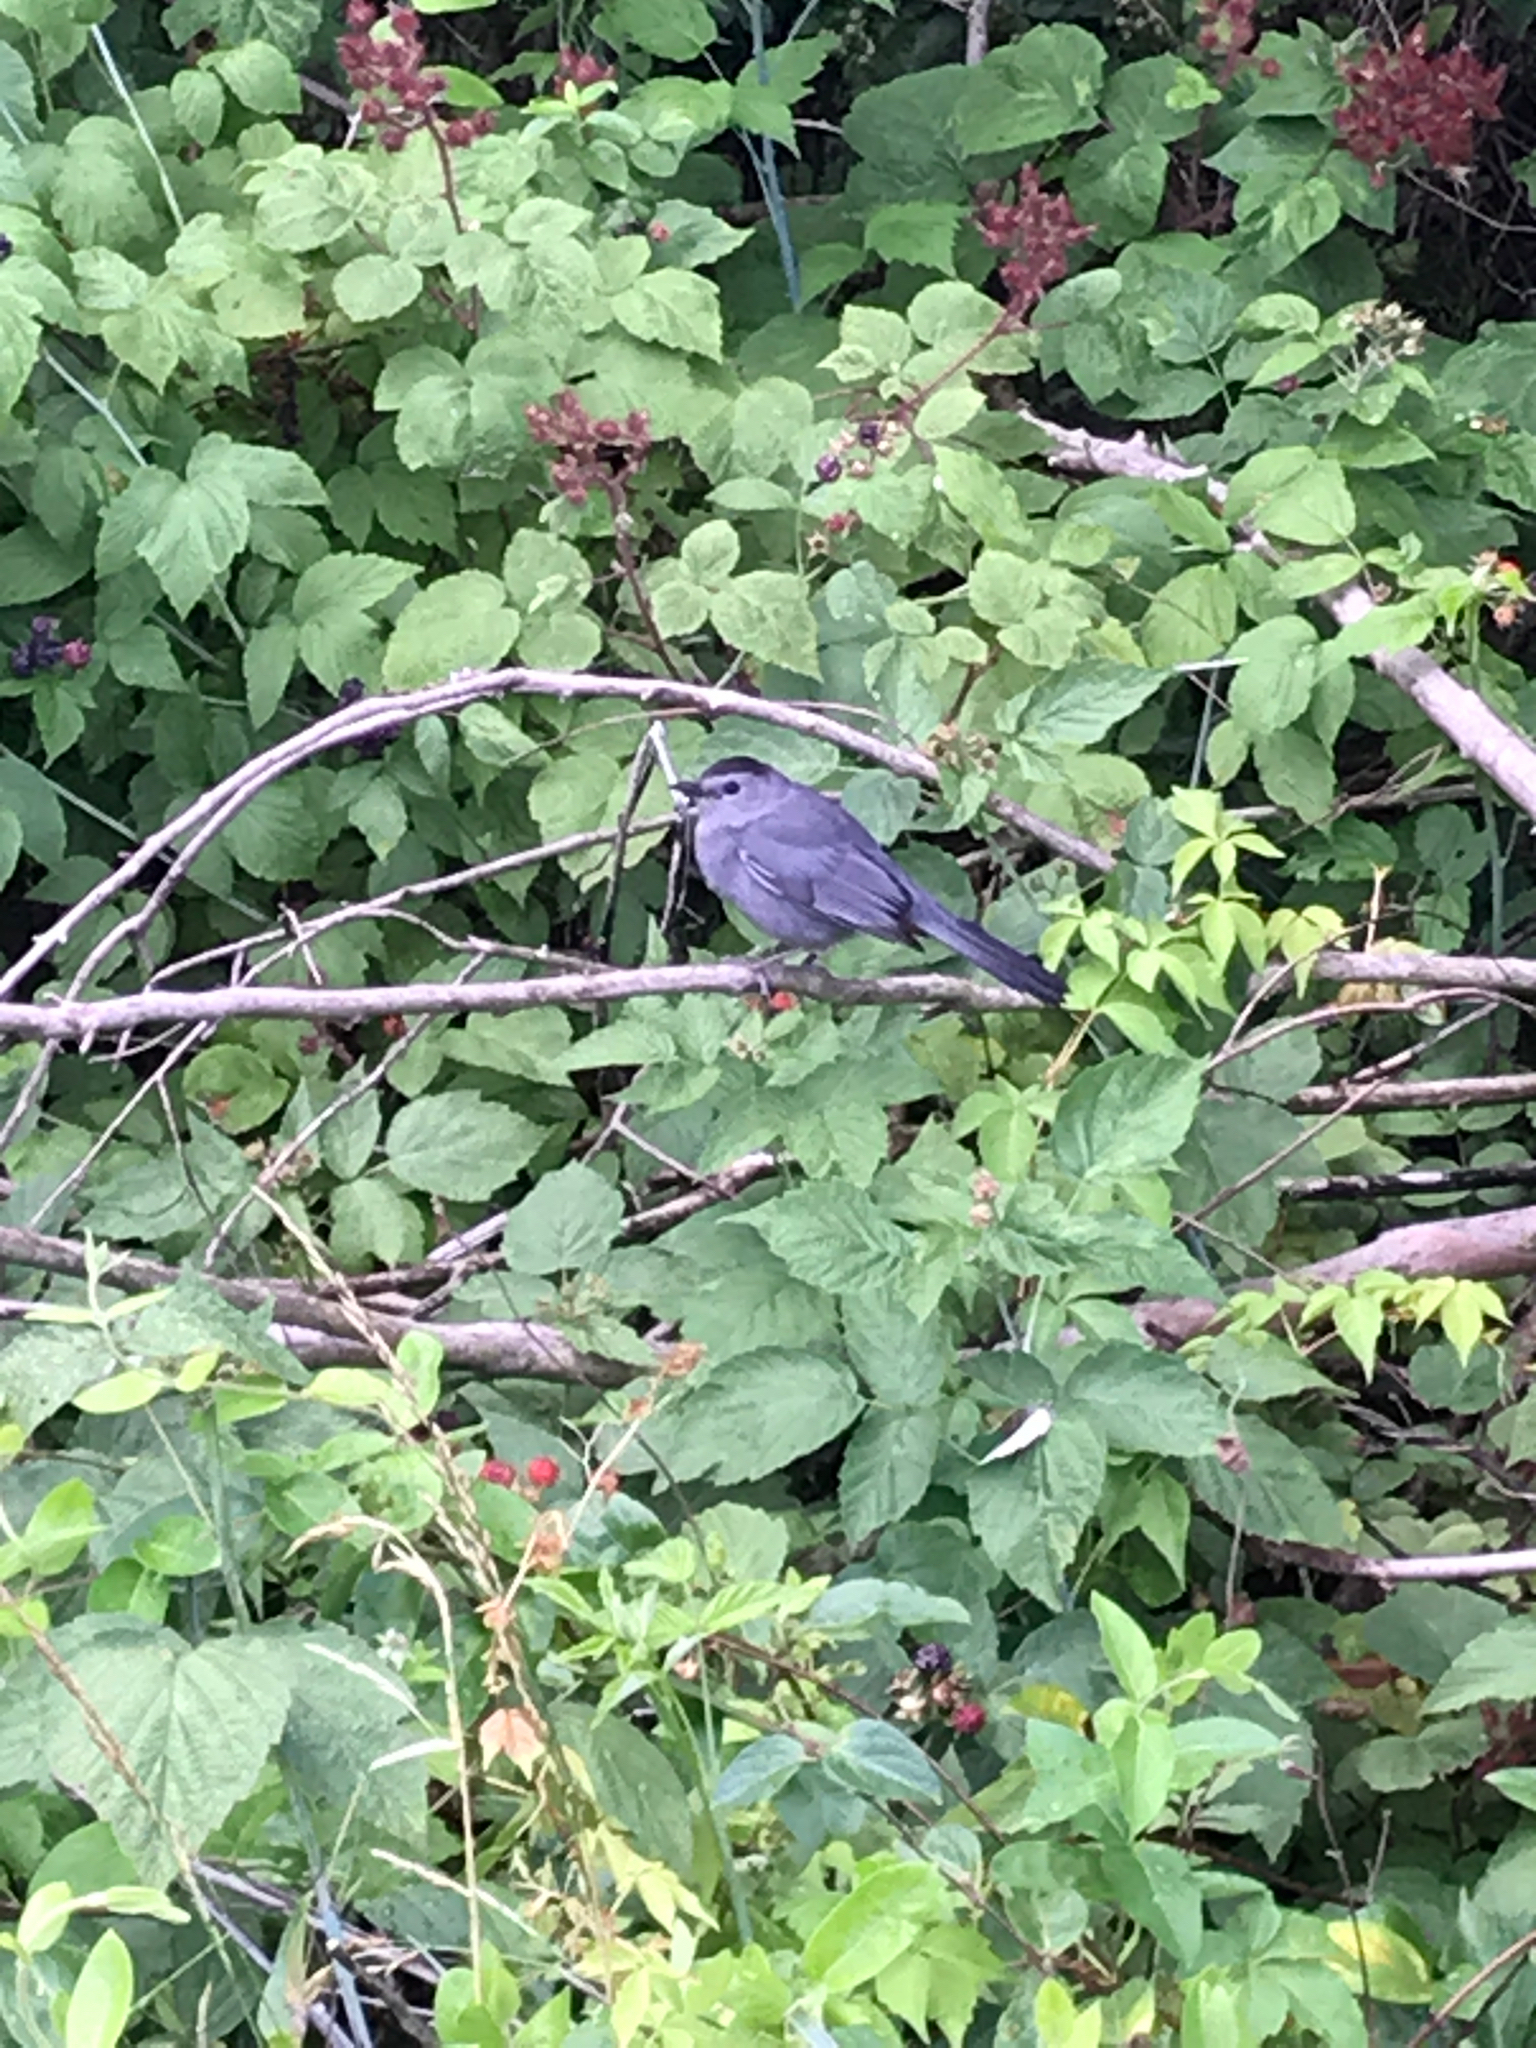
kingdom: Animalia
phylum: Chordata
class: Aves
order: Passeriformes
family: Mimidae
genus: Dumetella
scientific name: Dumetella carolinensis
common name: Gray catbird
